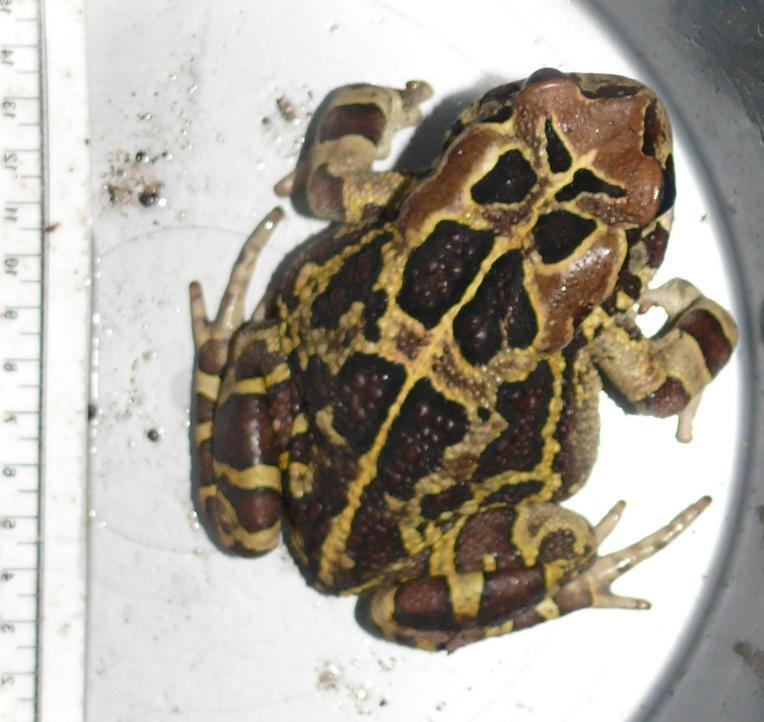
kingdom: Animalia
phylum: Chordata
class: Amphibia
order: Anura
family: Bufonidae
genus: Sclerophrys
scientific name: Sclerophrys pantherina
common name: Panther toad
